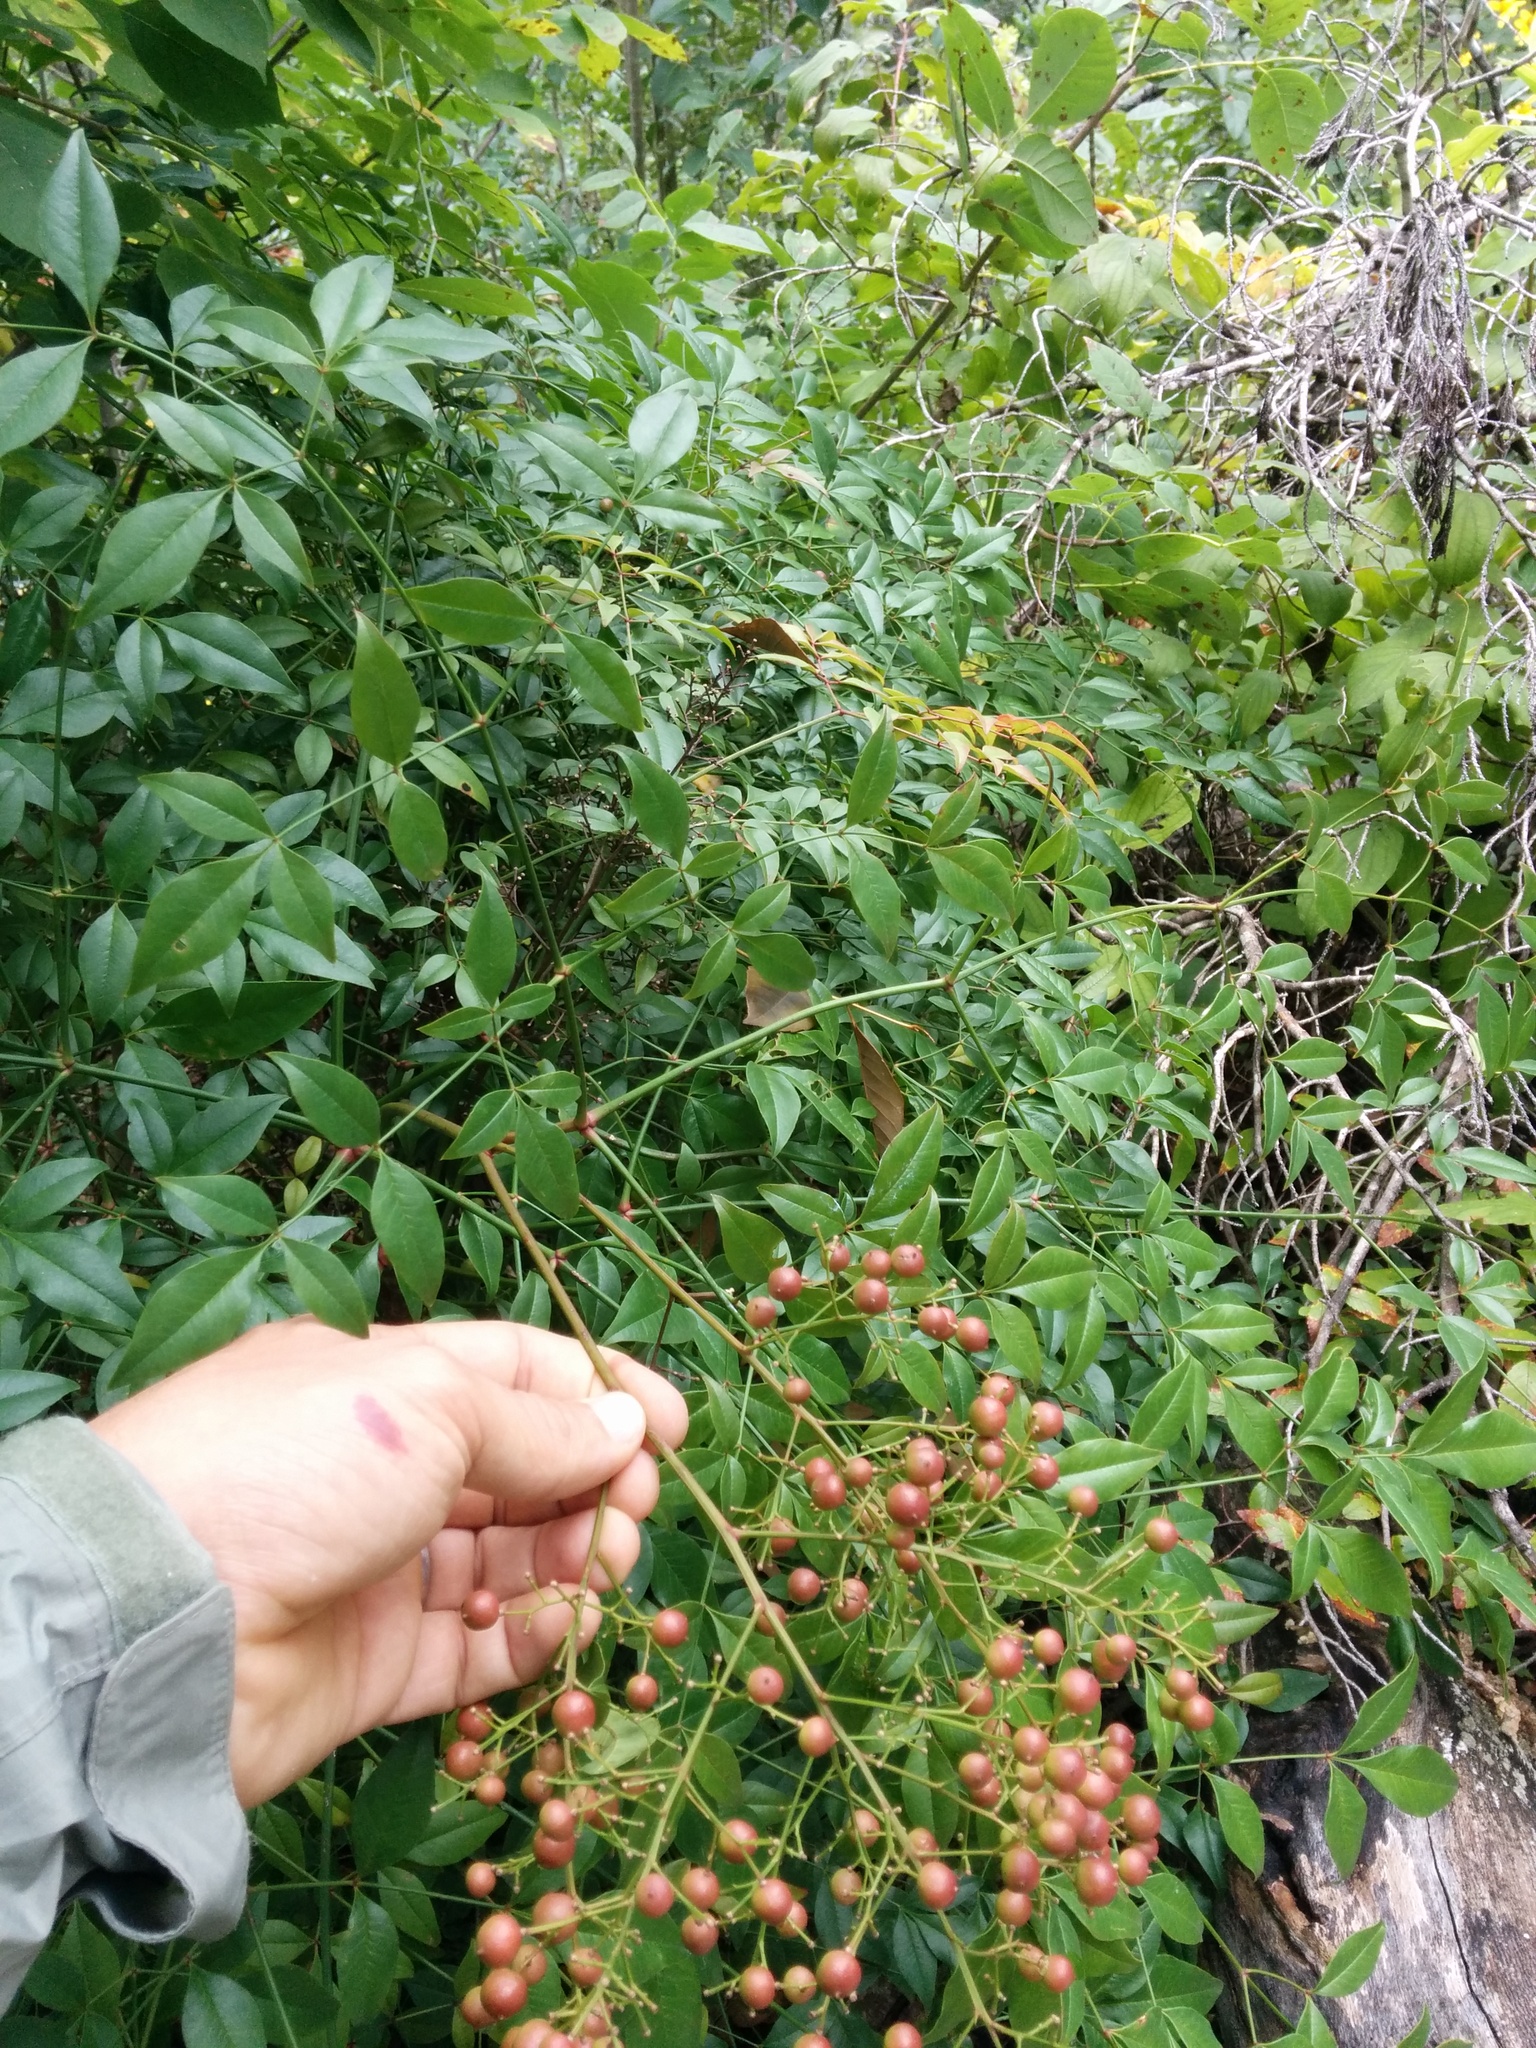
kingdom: Plantae
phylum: Tracheophyta
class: Magnoliopsida
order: Ranunculales
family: Berberidaceae
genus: Nandina
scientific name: Nandina domestica
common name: Sacred bamboo
